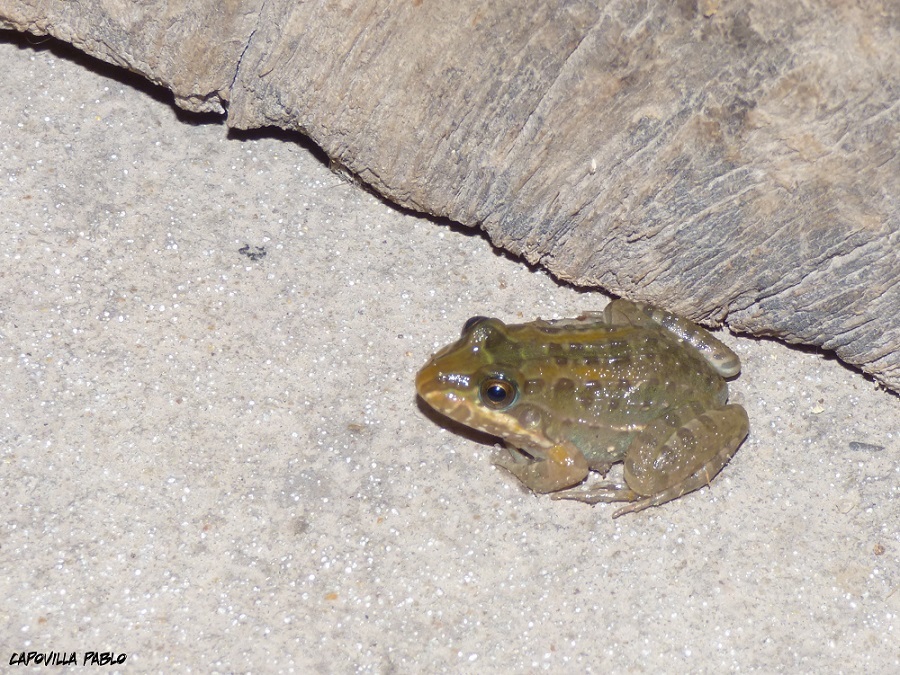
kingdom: Animalia
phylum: Chordata
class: Amphibia
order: Anura
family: Leptodactylidae
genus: Leptodactylus
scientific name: Leptodactylus macrosternum
